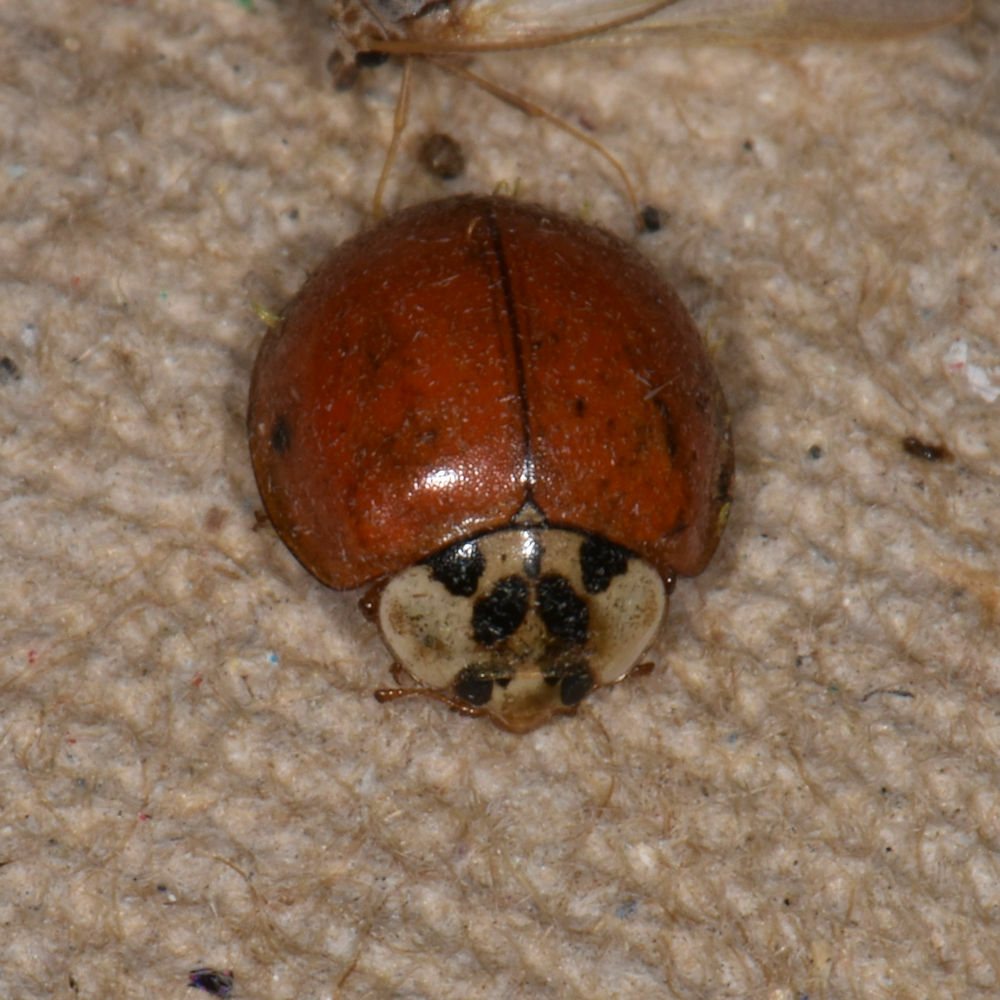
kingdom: Animalia
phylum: Arthropoda
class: Insecta
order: Coleoptera
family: Coccinellidae
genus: Harmonia
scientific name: Harmonia axyridis
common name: Harlequin ladybird
